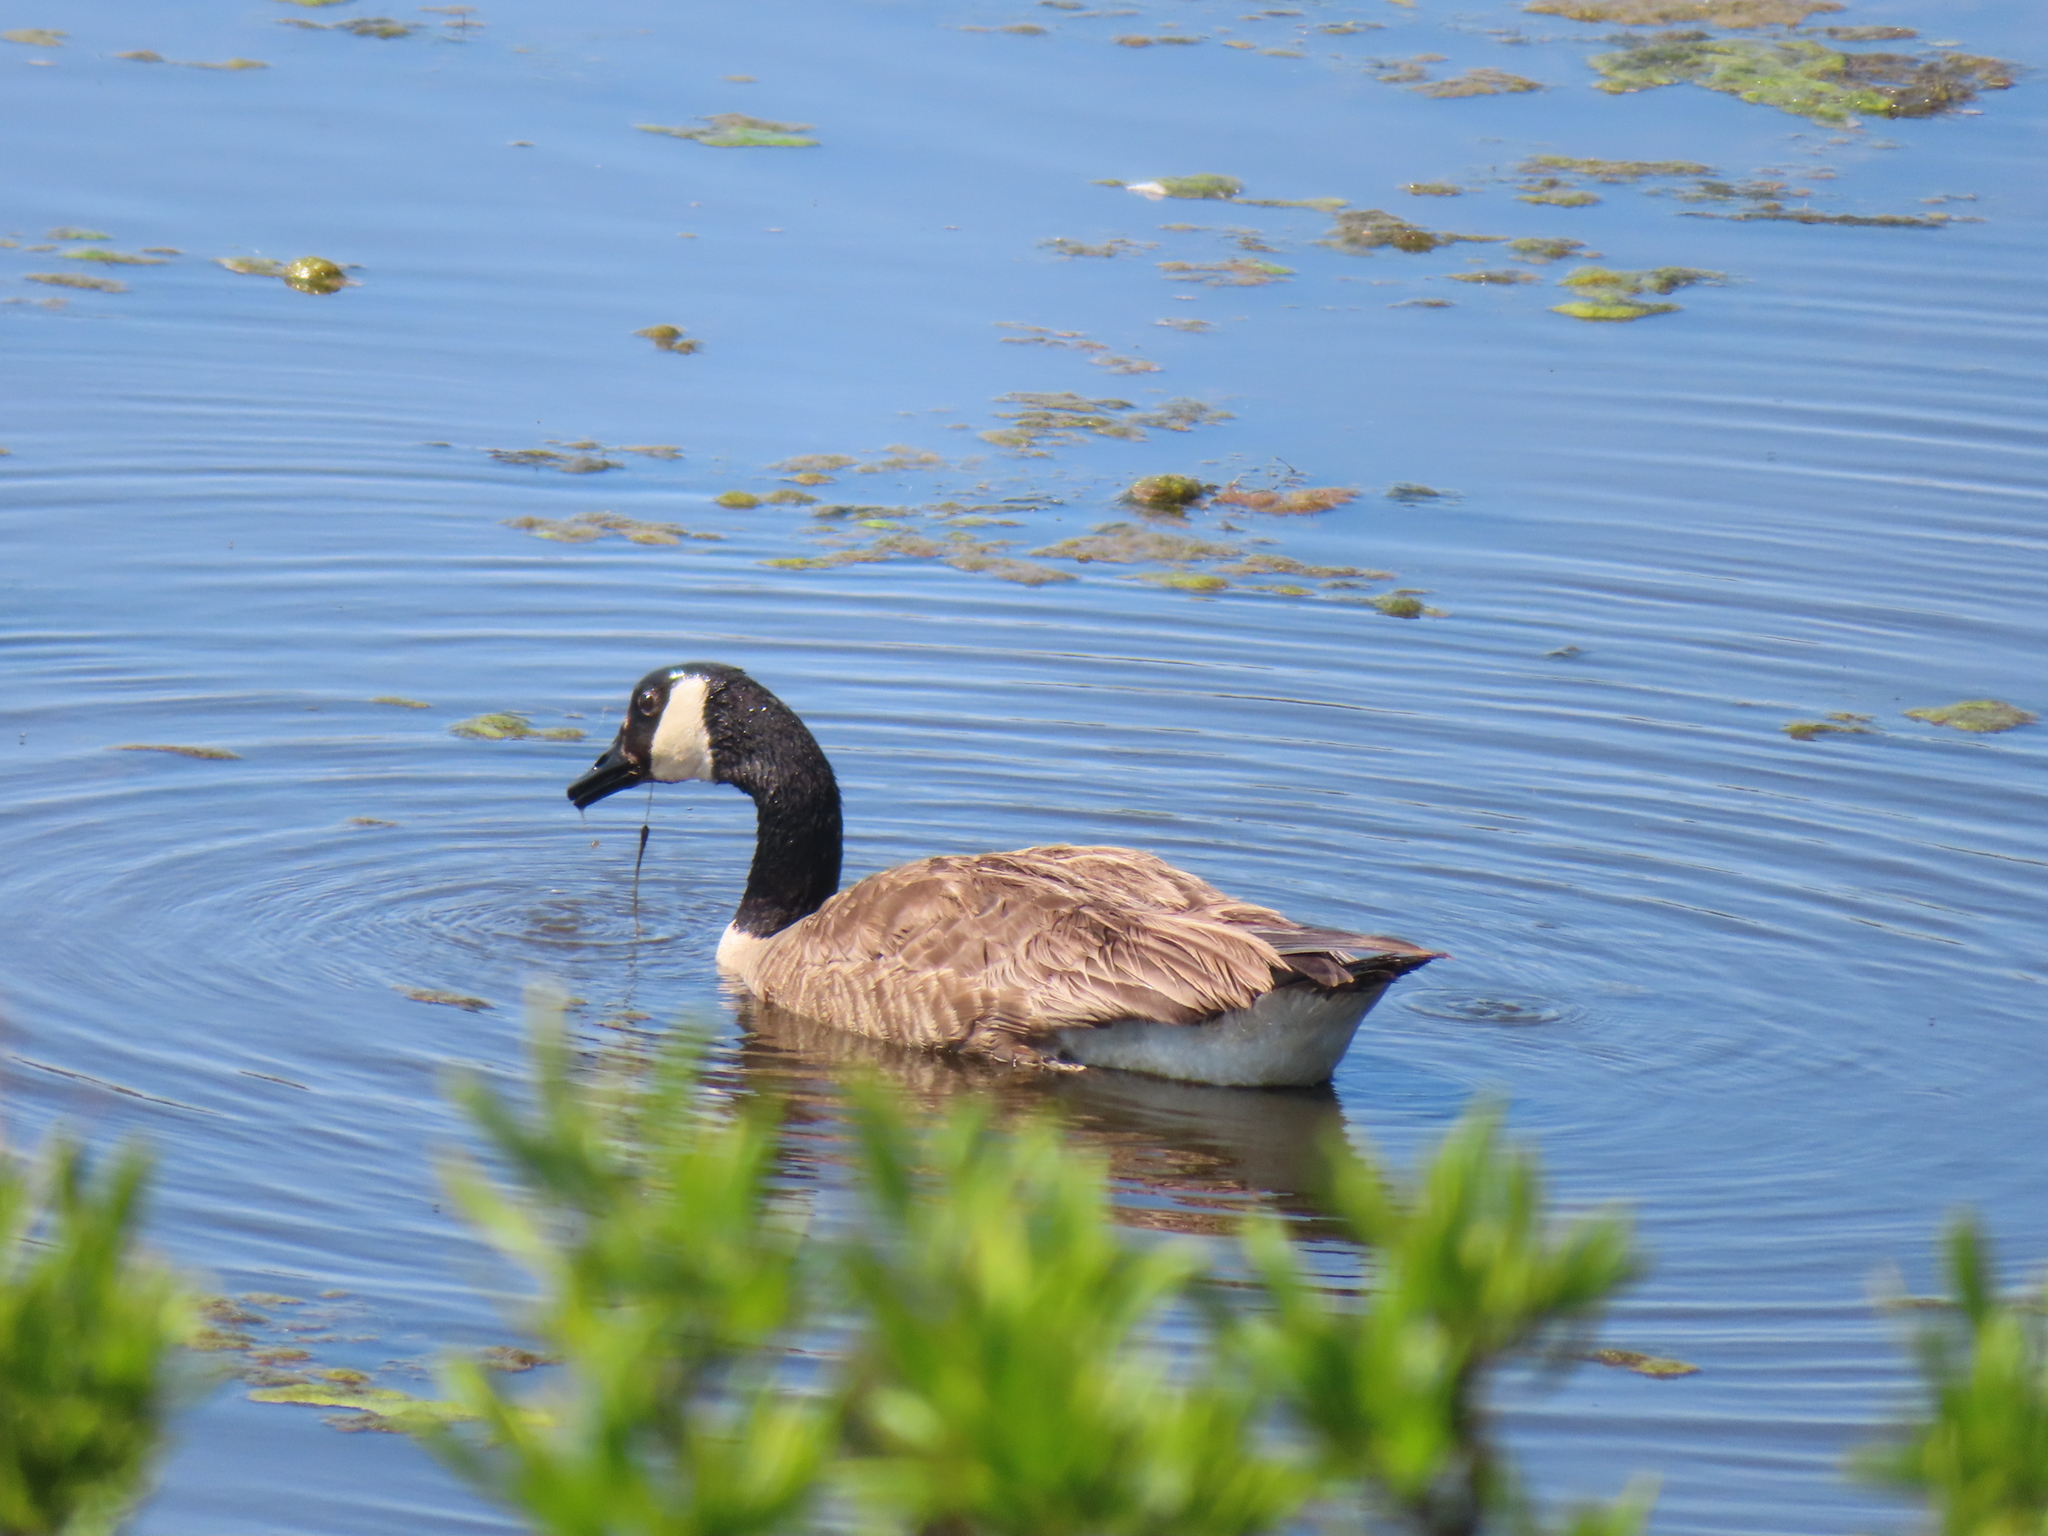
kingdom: Animalia
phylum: Chordata
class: Aves
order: Anseriformes
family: Anatidae
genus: Branta
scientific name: Branta canadensis
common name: Canada goose
